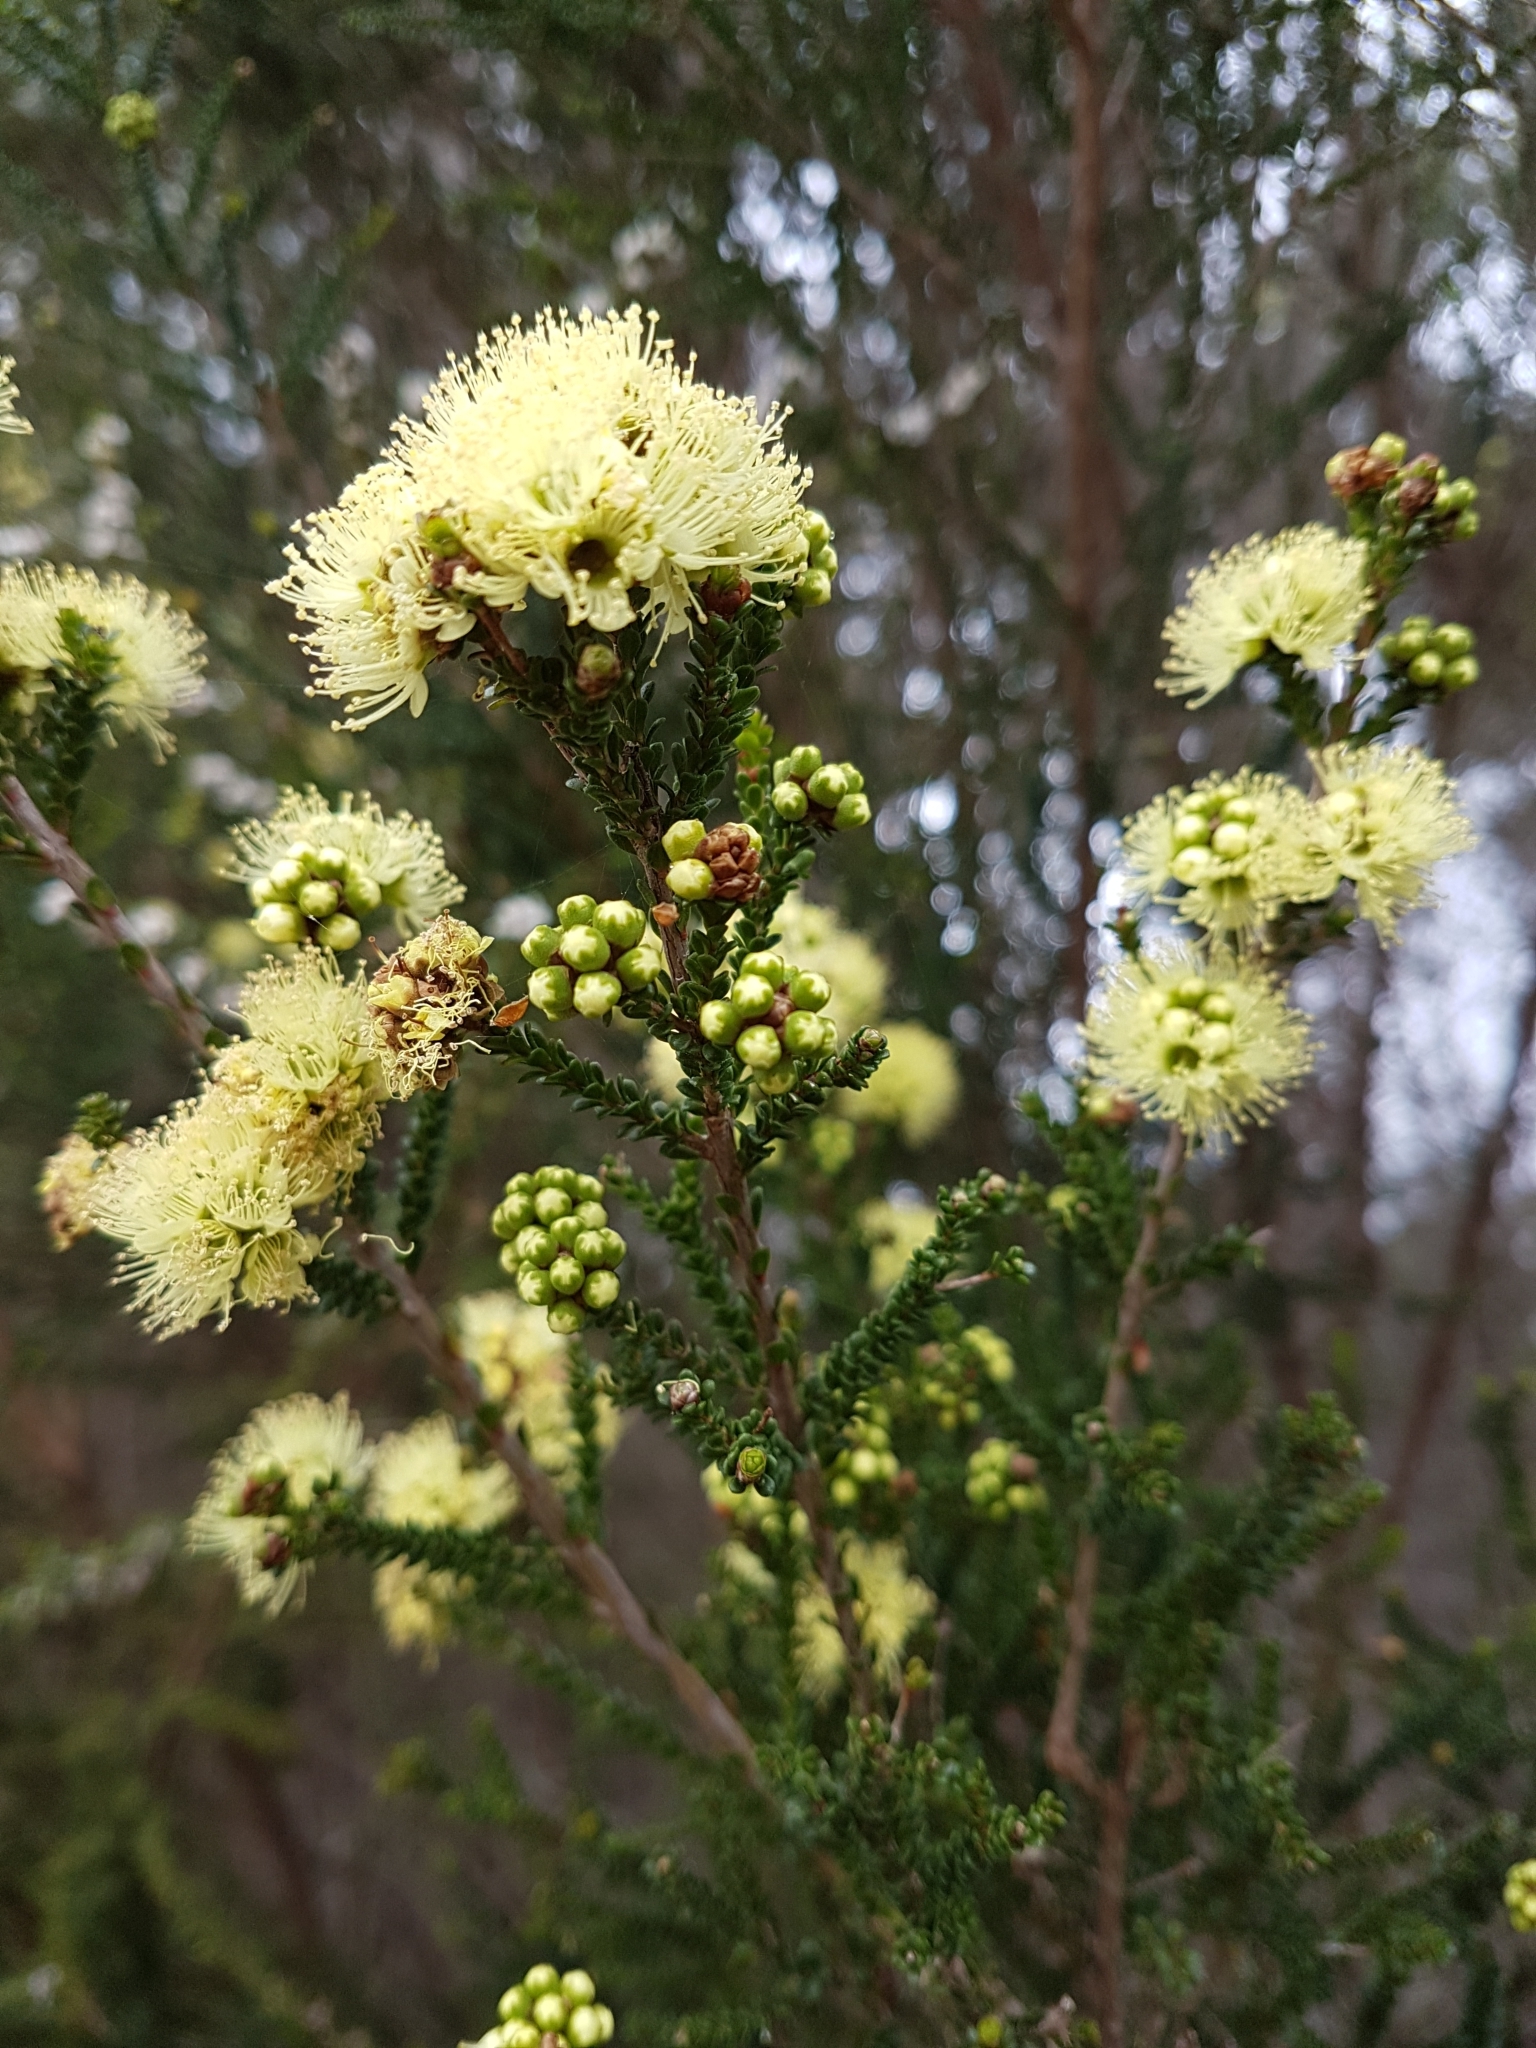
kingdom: Plantae
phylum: Tracheophyta
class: Magnoliopsida
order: Myrtales
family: Myrtaceae
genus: Kunzea
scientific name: Kunzea sulphurea
